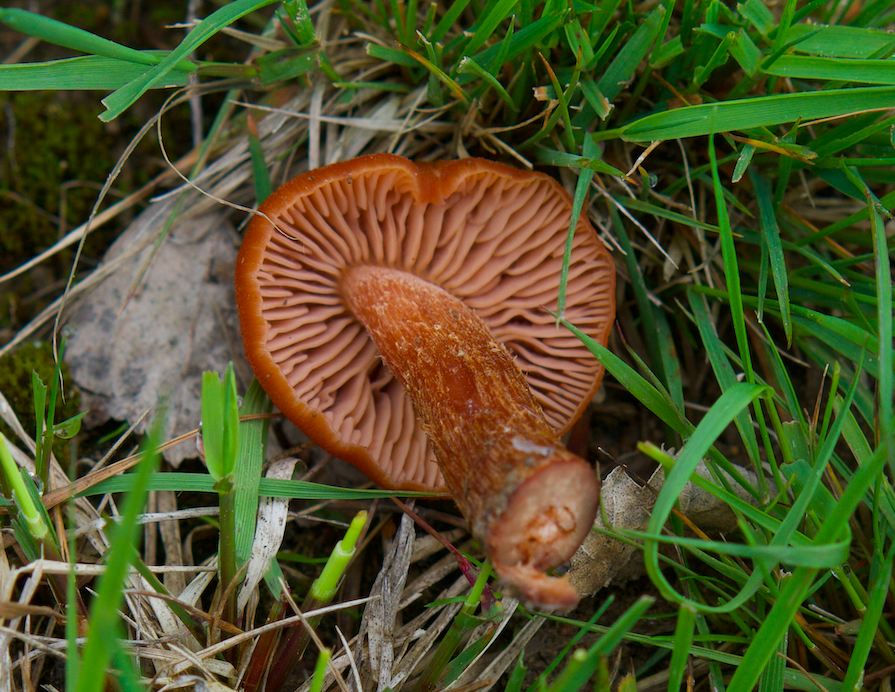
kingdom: Fungi
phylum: Basidiomycota
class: Agaricomycetes
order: Agaricales
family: Hydnangiaceae
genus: Laccaria
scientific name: Laccaria laccata
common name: Deceiver
